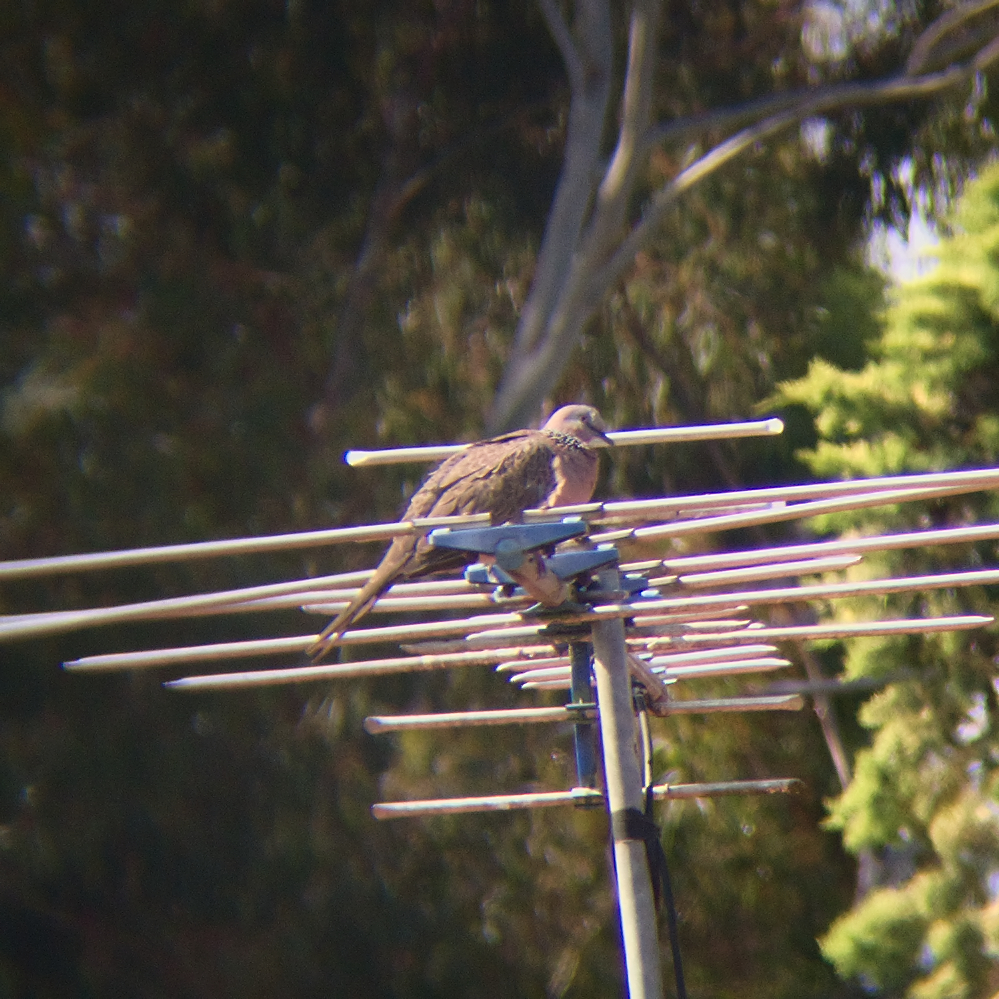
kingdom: Animalia
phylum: Chordata
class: Aves
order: Columbiformes
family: Columbidae
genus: Spilopelia
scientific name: Spilopelia chinensis
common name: Spotted dove
